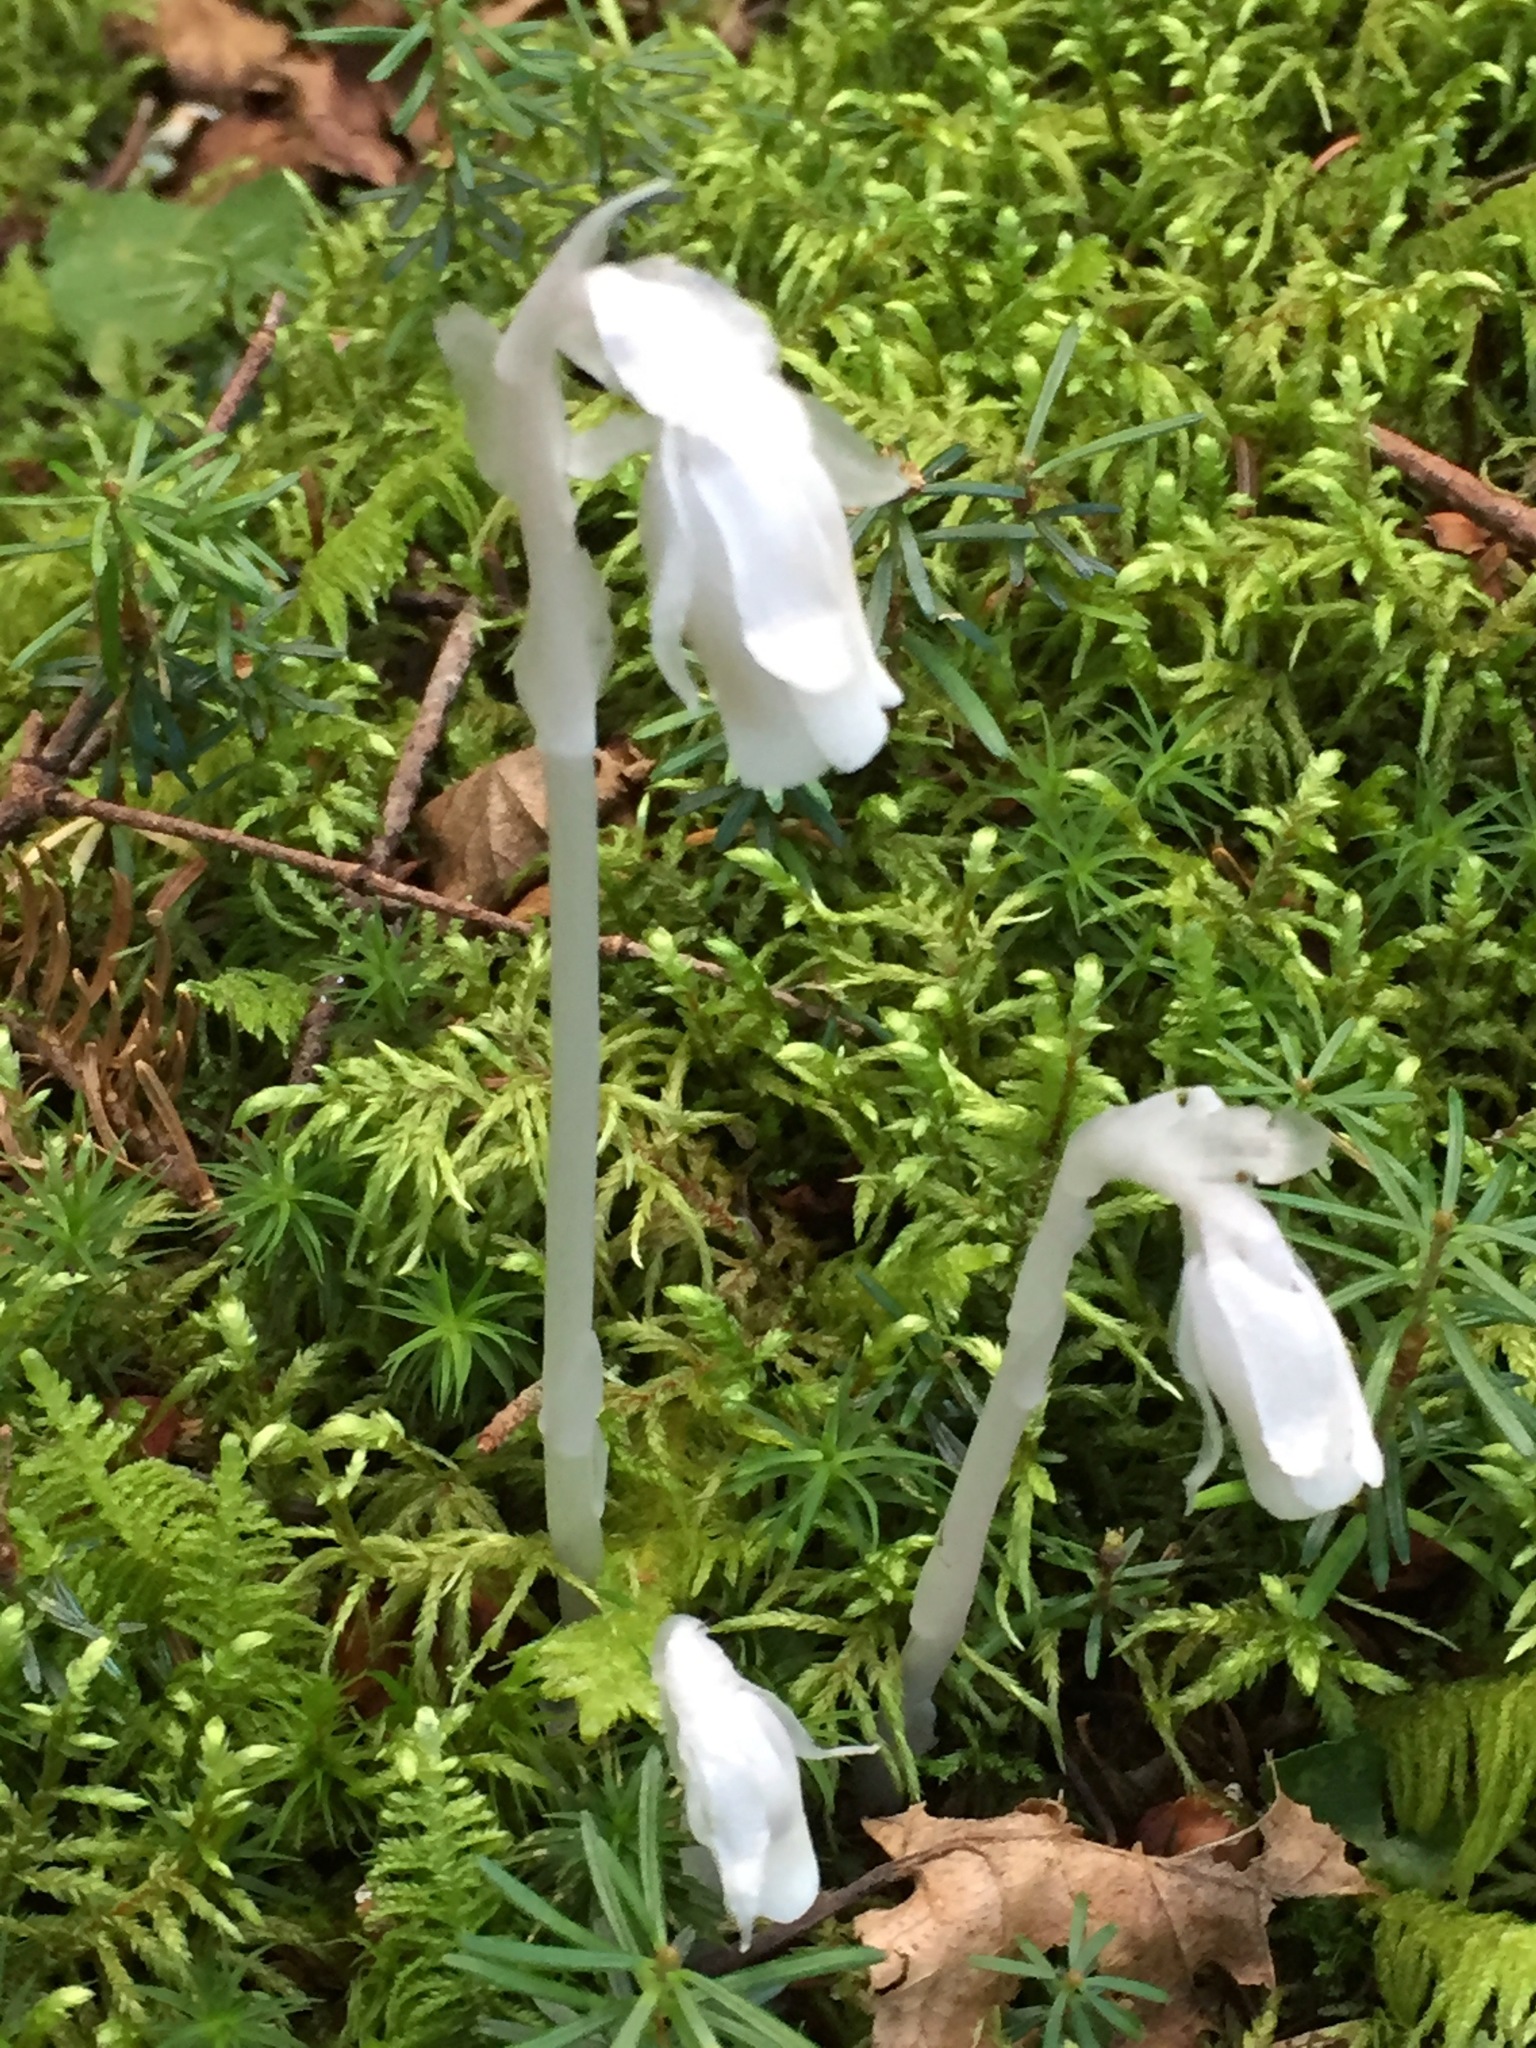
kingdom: Plantae
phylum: Tracheophyta
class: Magnoliopsida
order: Ericales
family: Ericaceae
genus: Monotropa
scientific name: Monotropa uniflora
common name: Convulsion root
